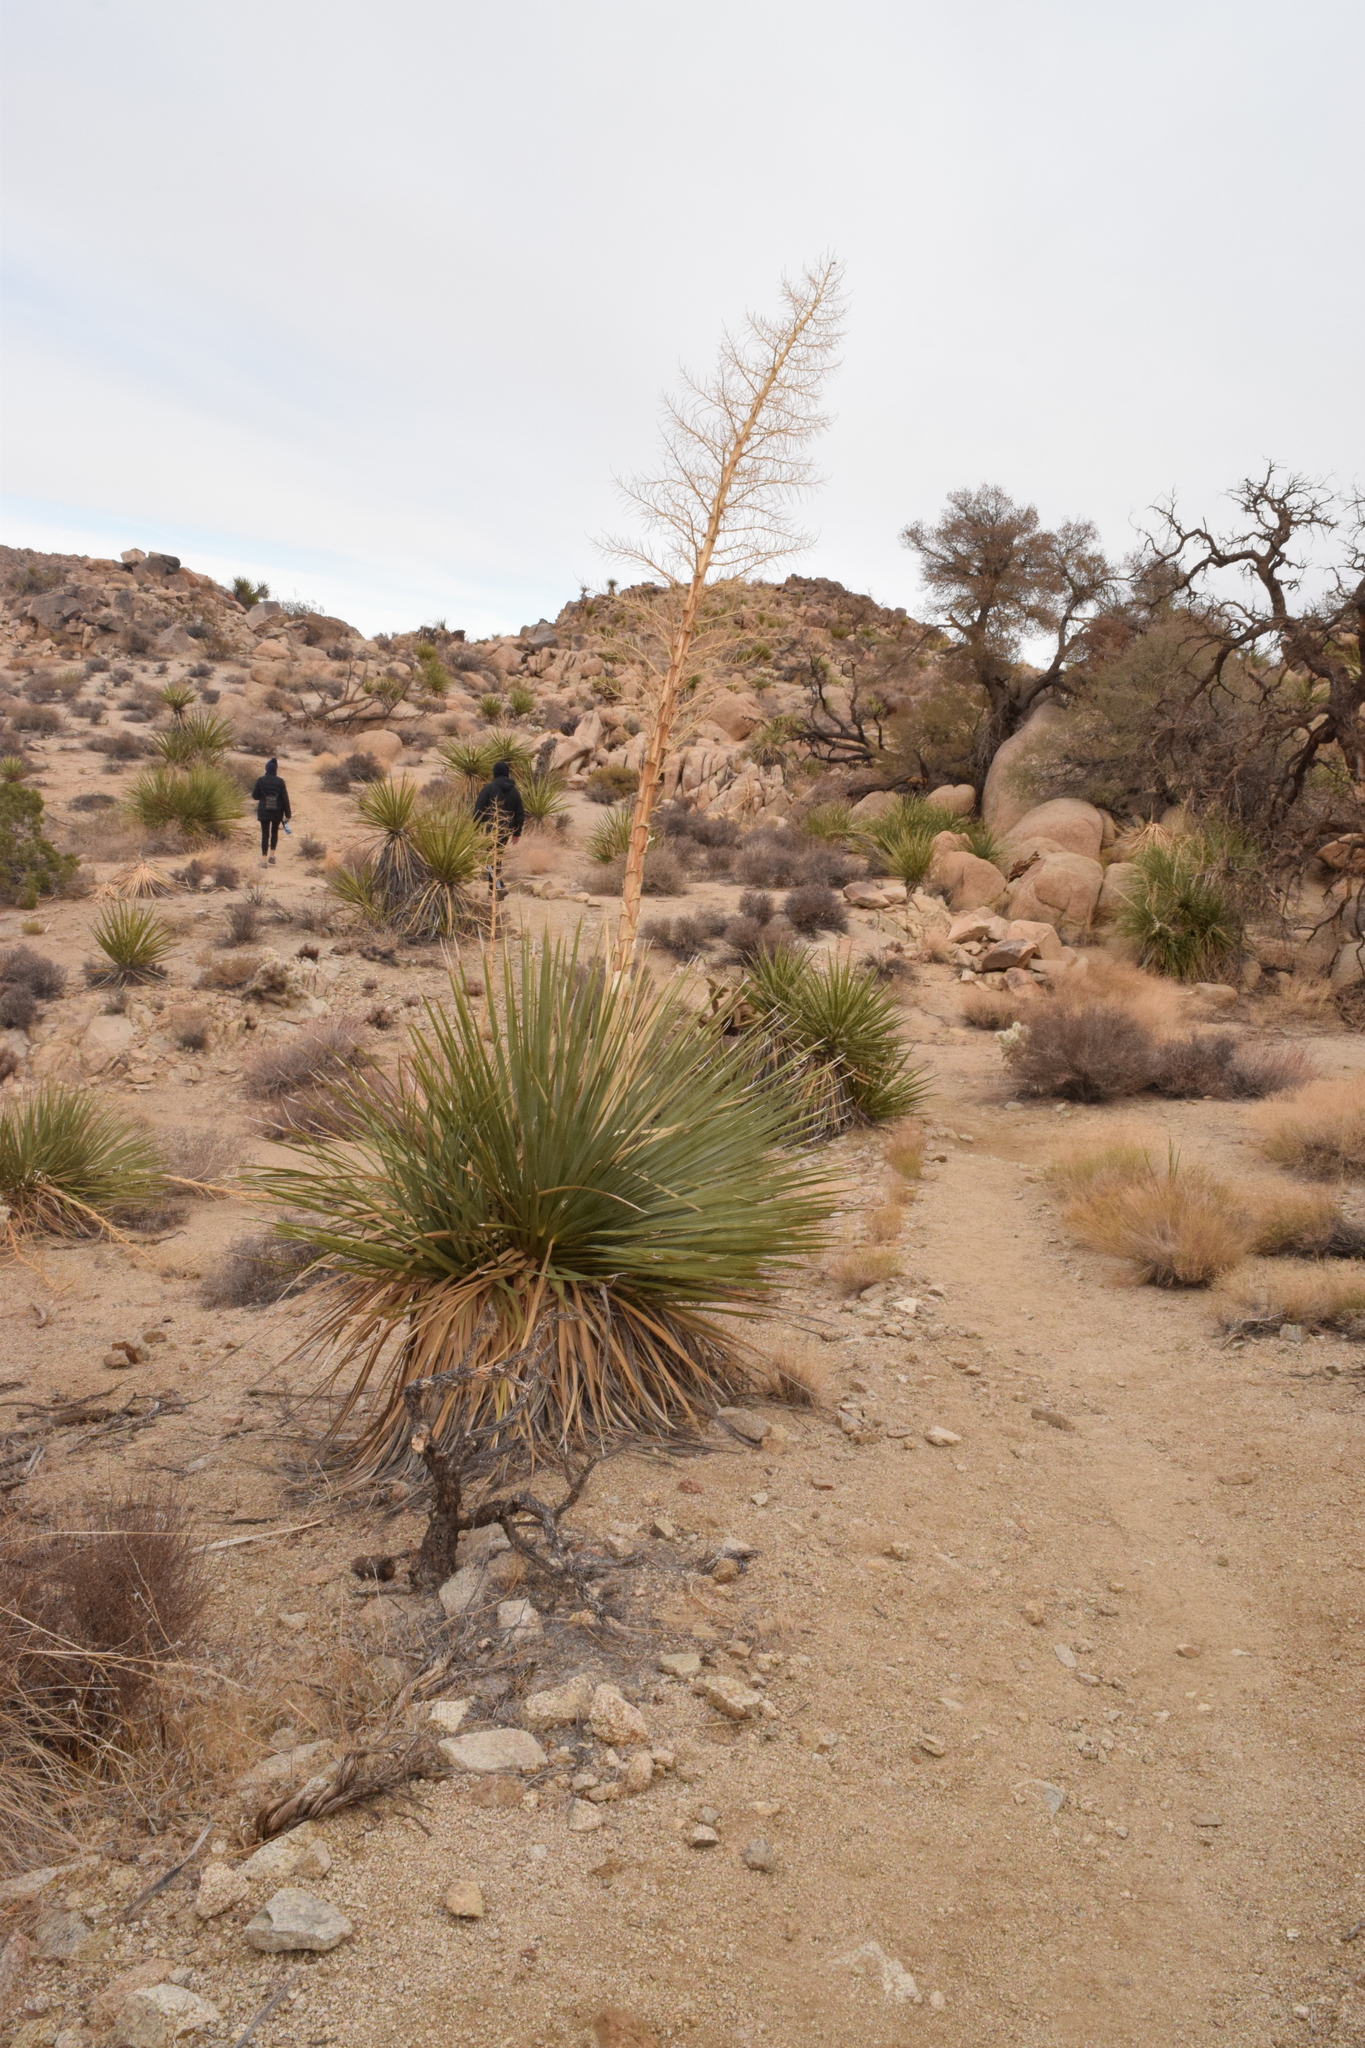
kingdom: Plantae
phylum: Tracheophyta
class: Liliopsida
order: Asparagales
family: Asparagaceae
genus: Nolina
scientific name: Nolina parryi
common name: Parry nolina
